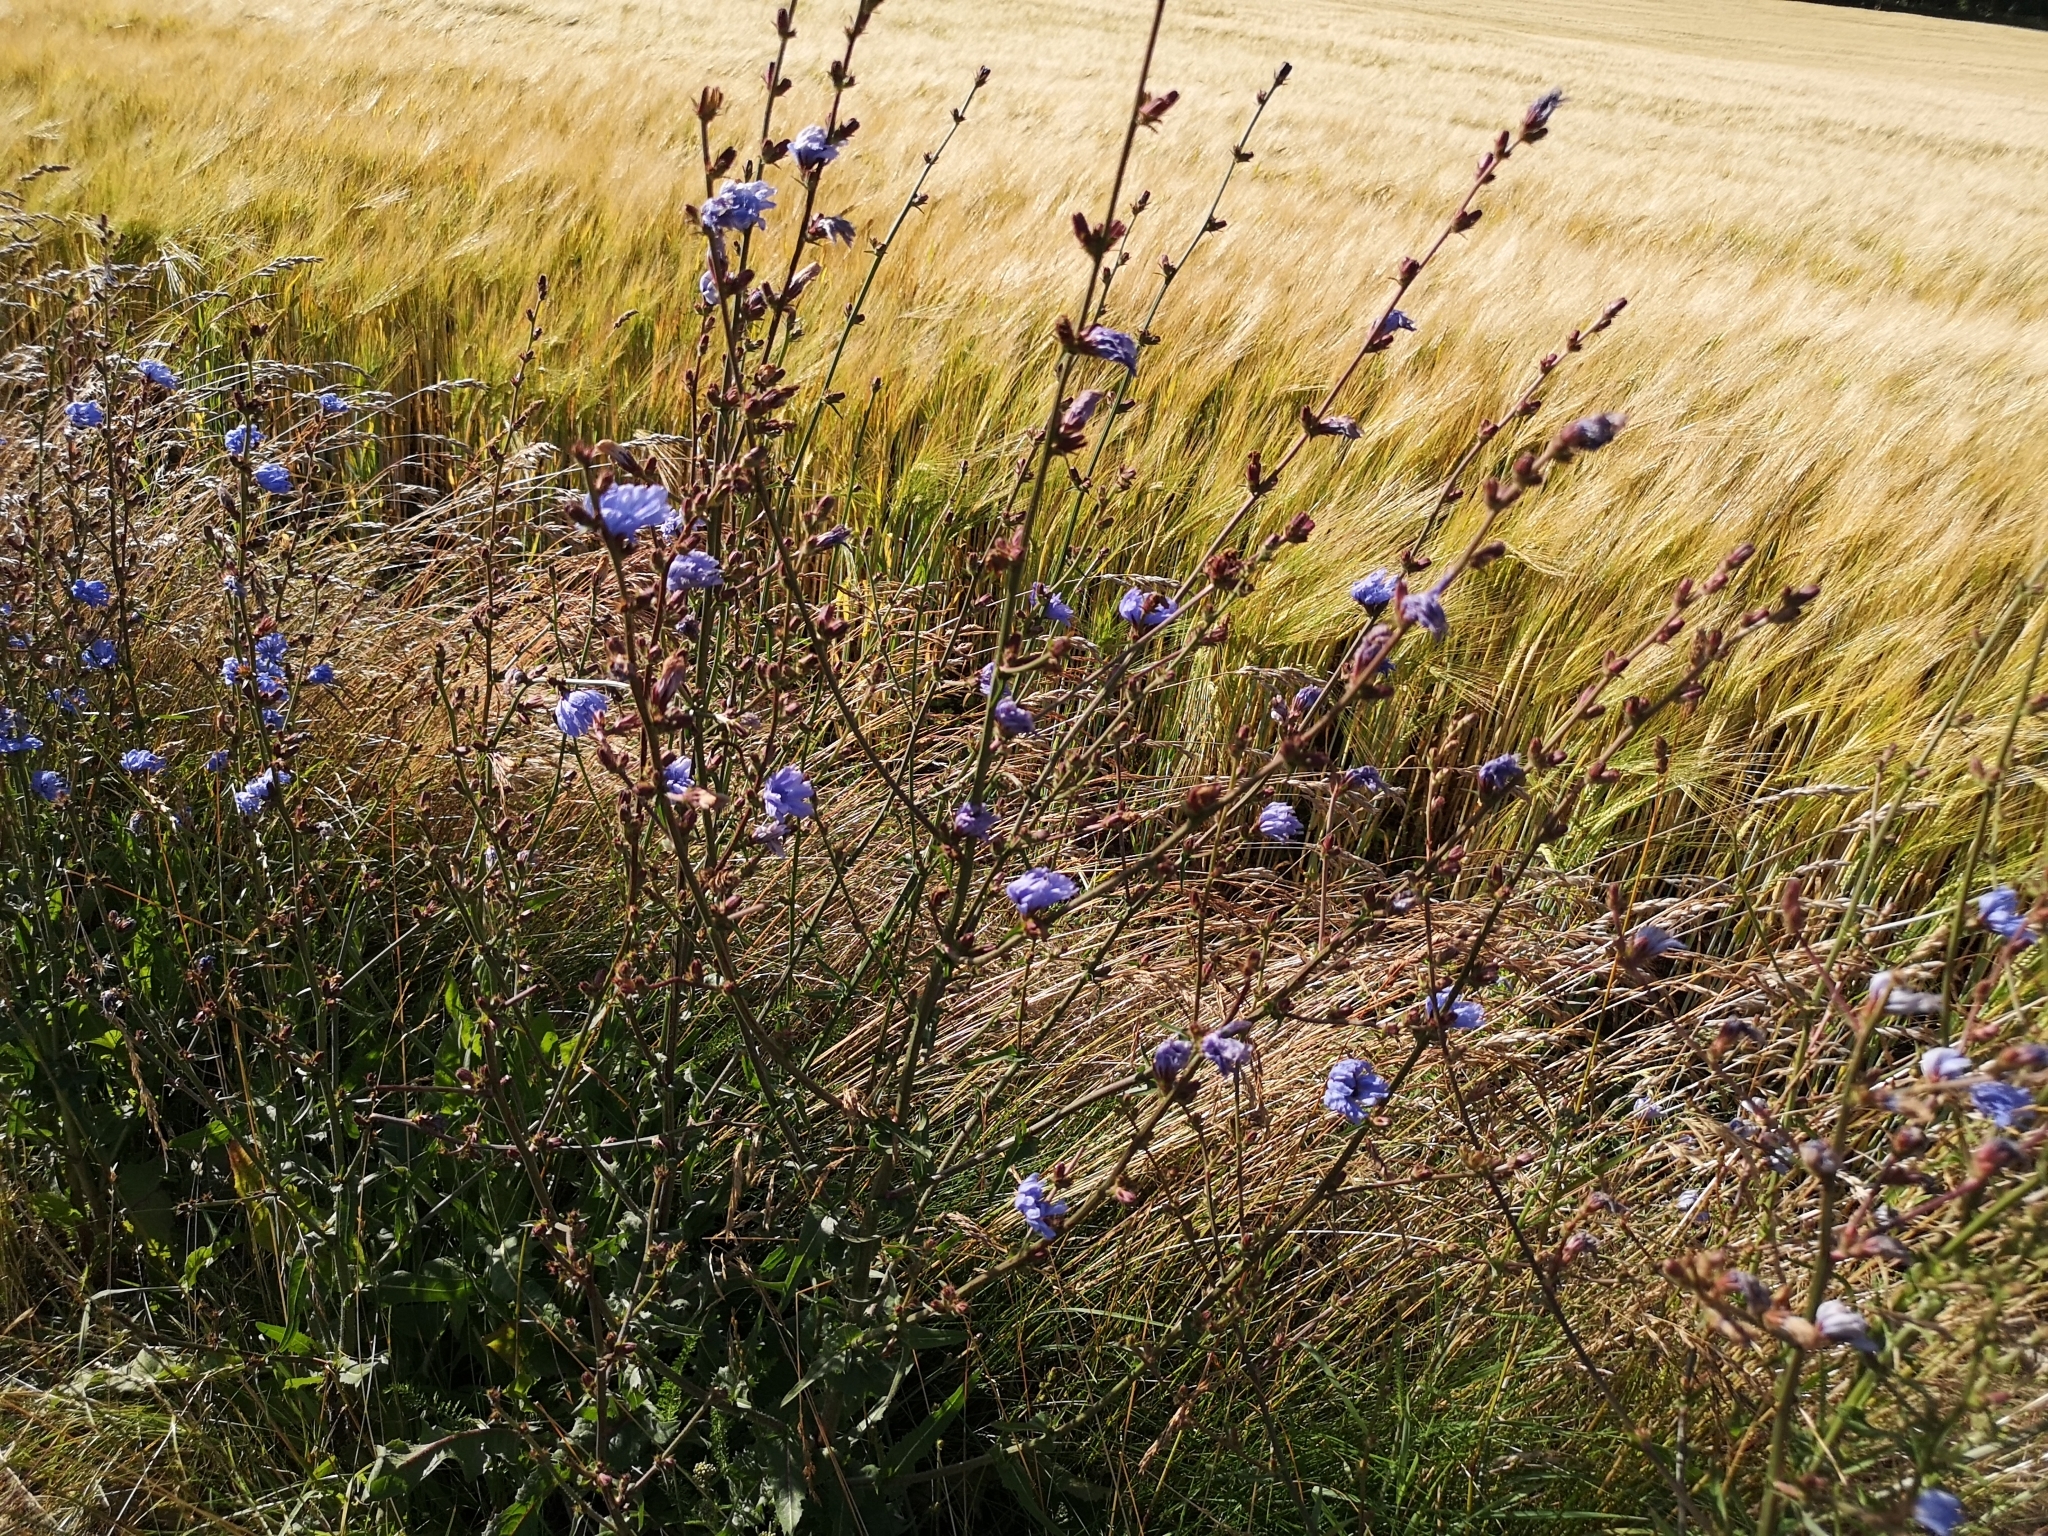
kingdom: Plantae
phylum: Tracheophyta
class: Magnoliopsida
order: Asterales
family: Asteraceae
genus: Cichorium
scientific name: Cichorium intybus
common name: Chicory
